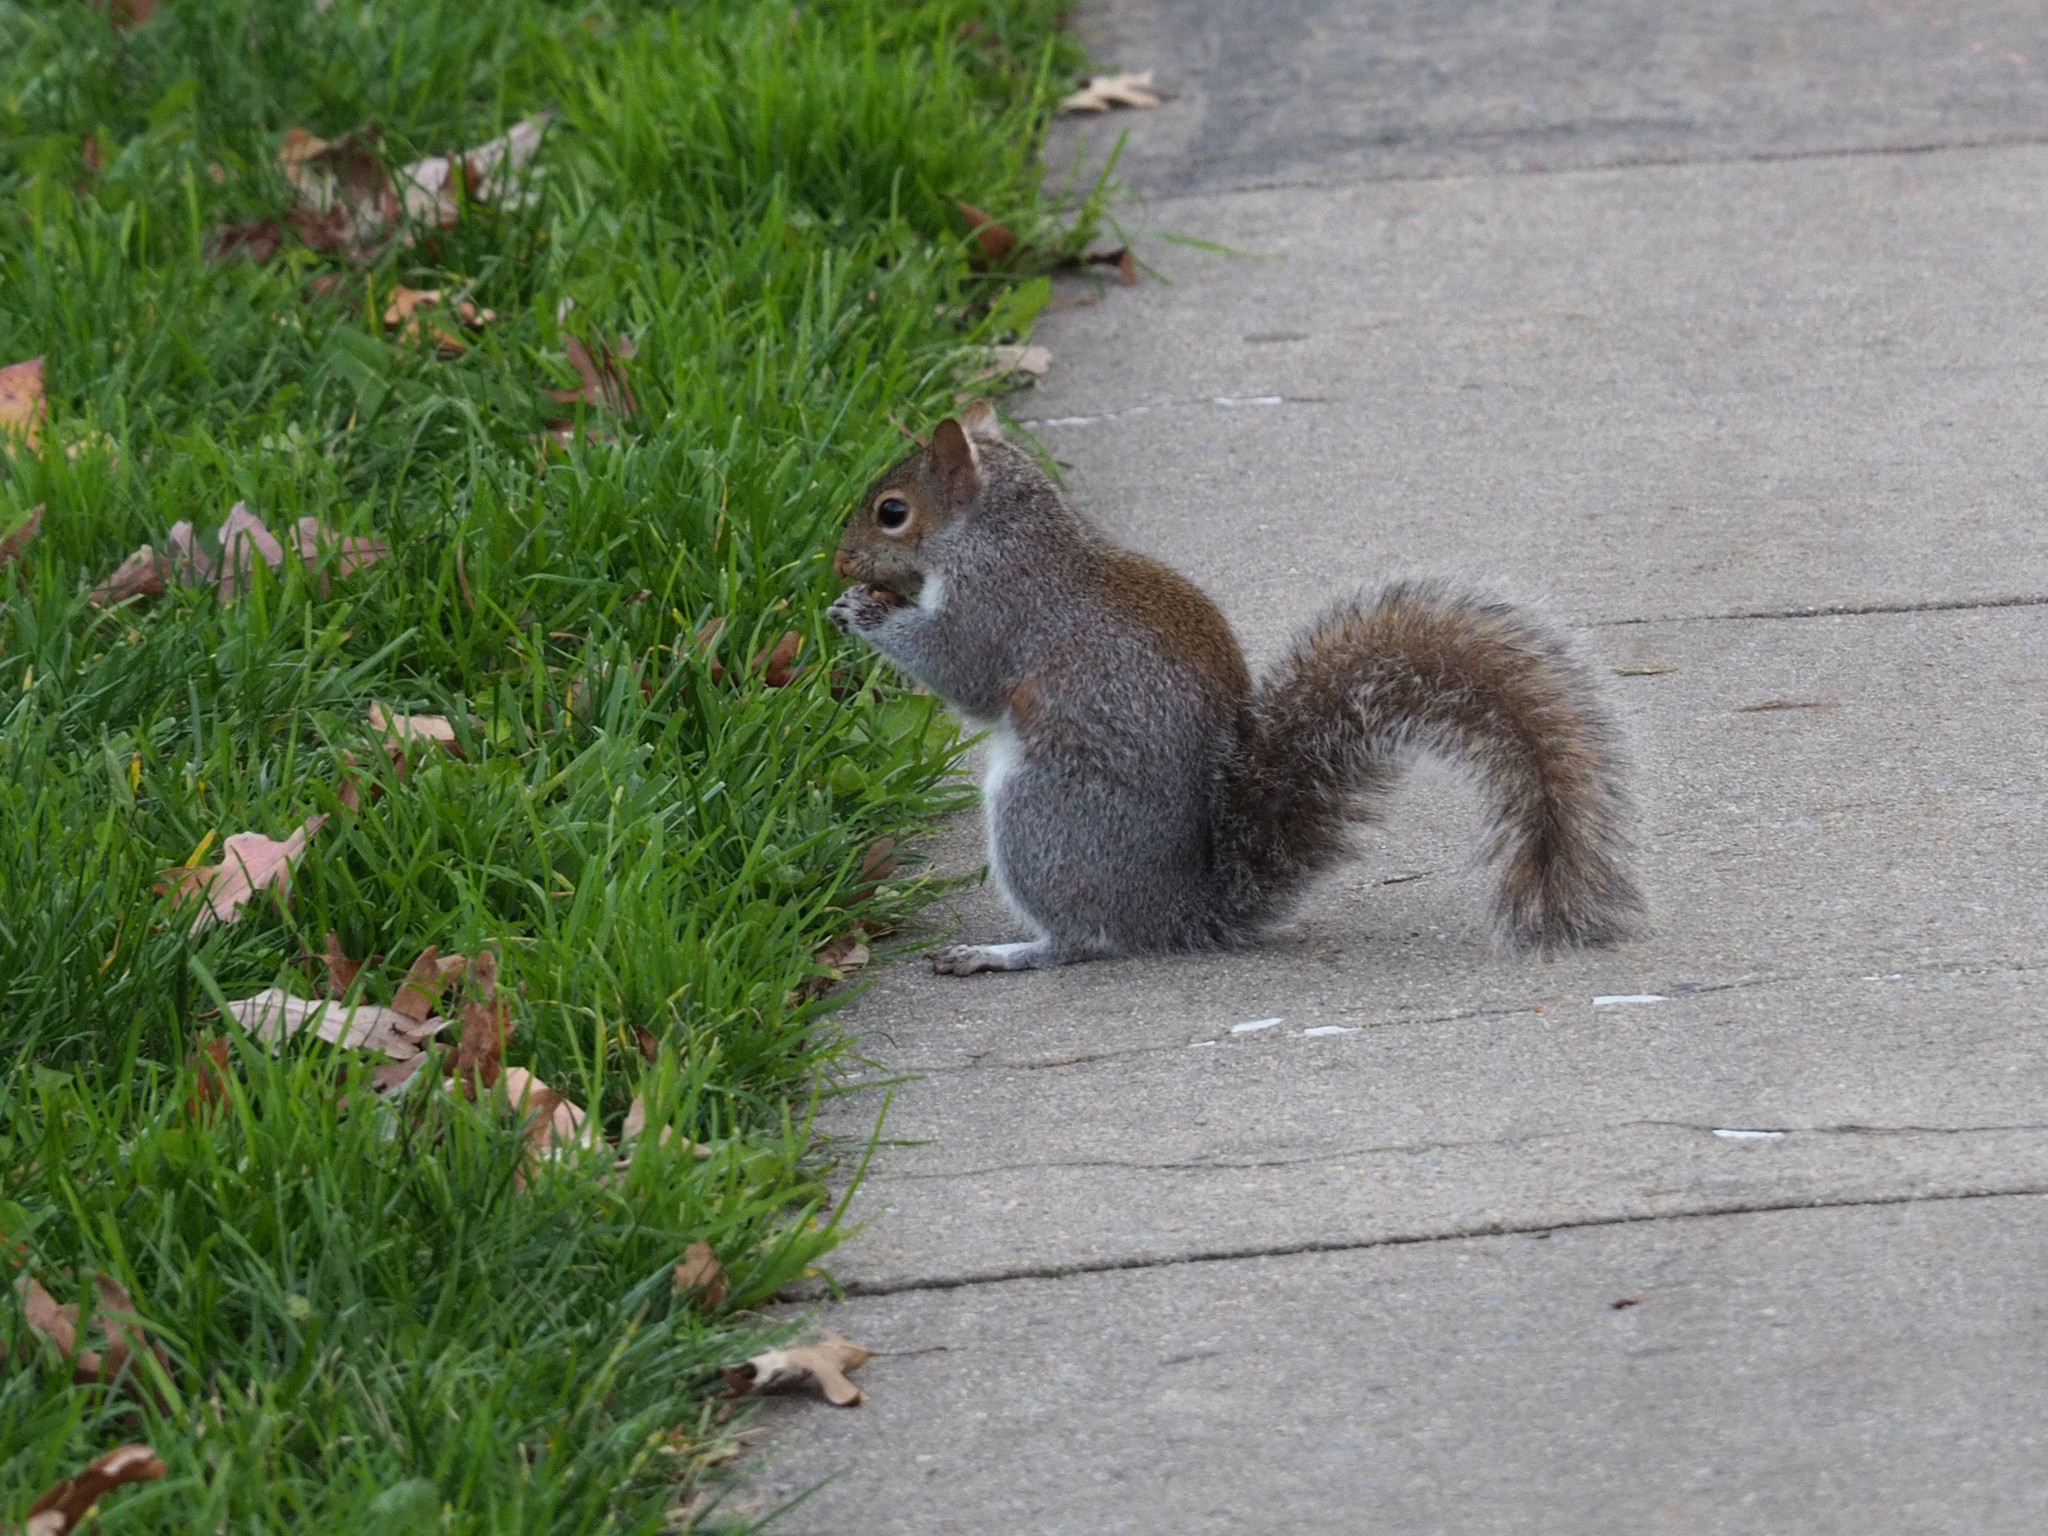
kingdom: Animalia
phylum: Chordata
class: Mammalia
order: Rodentia
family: Sciuridae
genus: Sciurus
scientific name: Sciurus carolinensis
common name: Eastern gray squirrel
